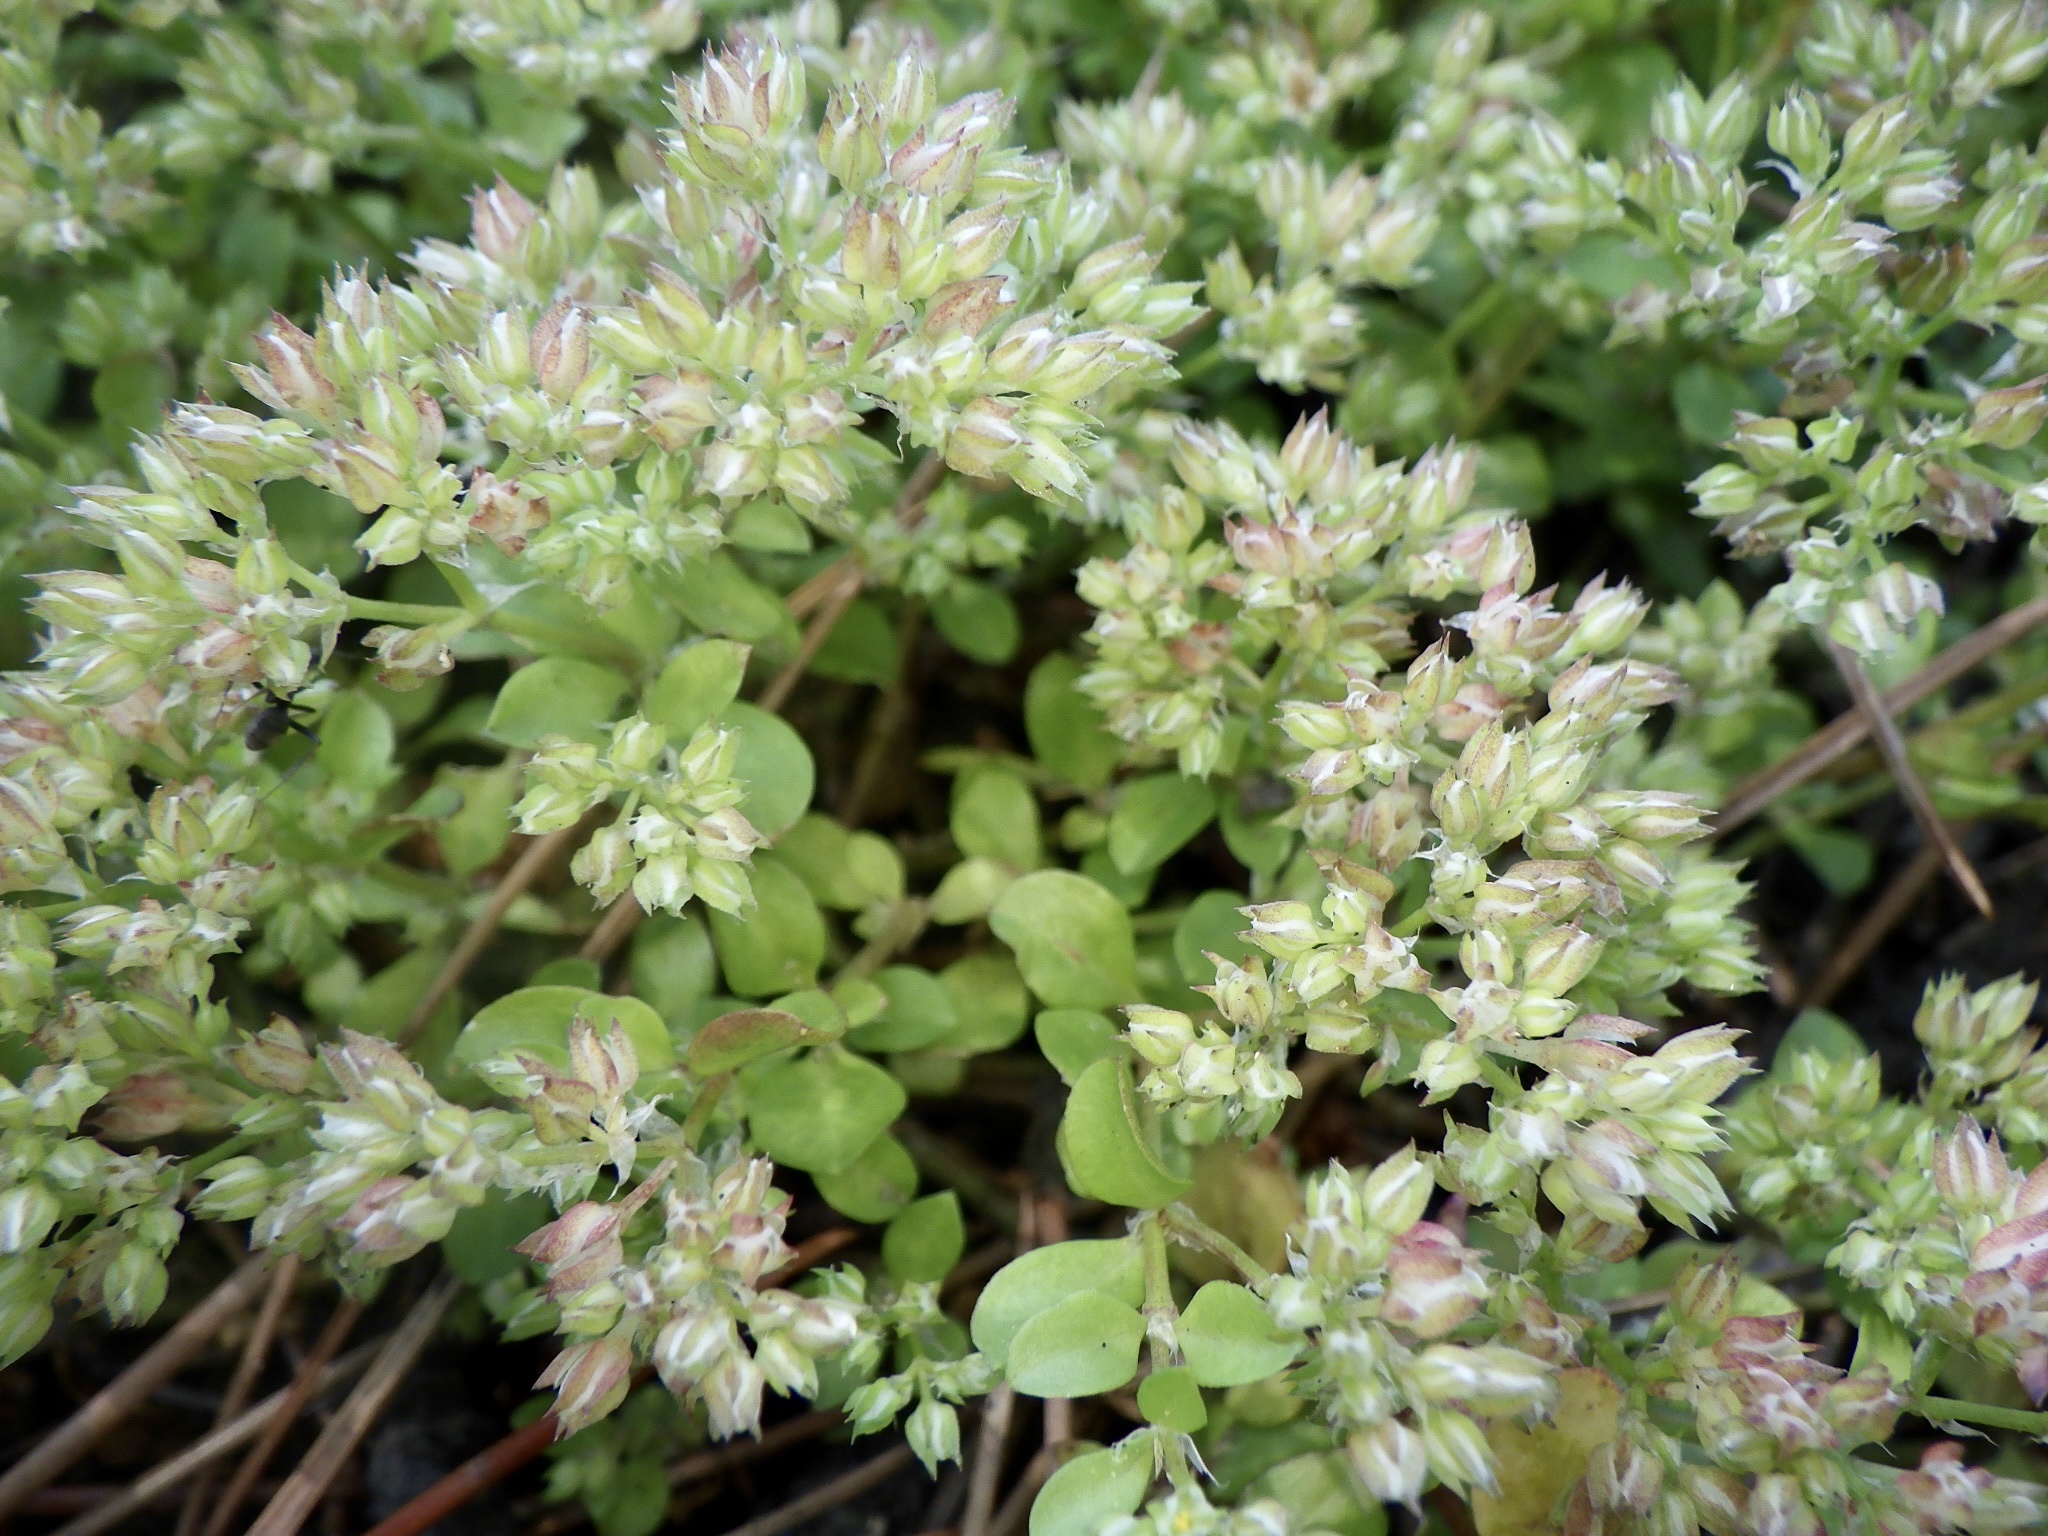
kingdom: Plantae
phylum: Tracheophyta
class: Magnoliopsida
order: Caryophyllales
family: Caryophyllaceae
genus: Polycarpon
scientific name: Polycarpon tetraphyllum
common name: Four-leaved all-seed
